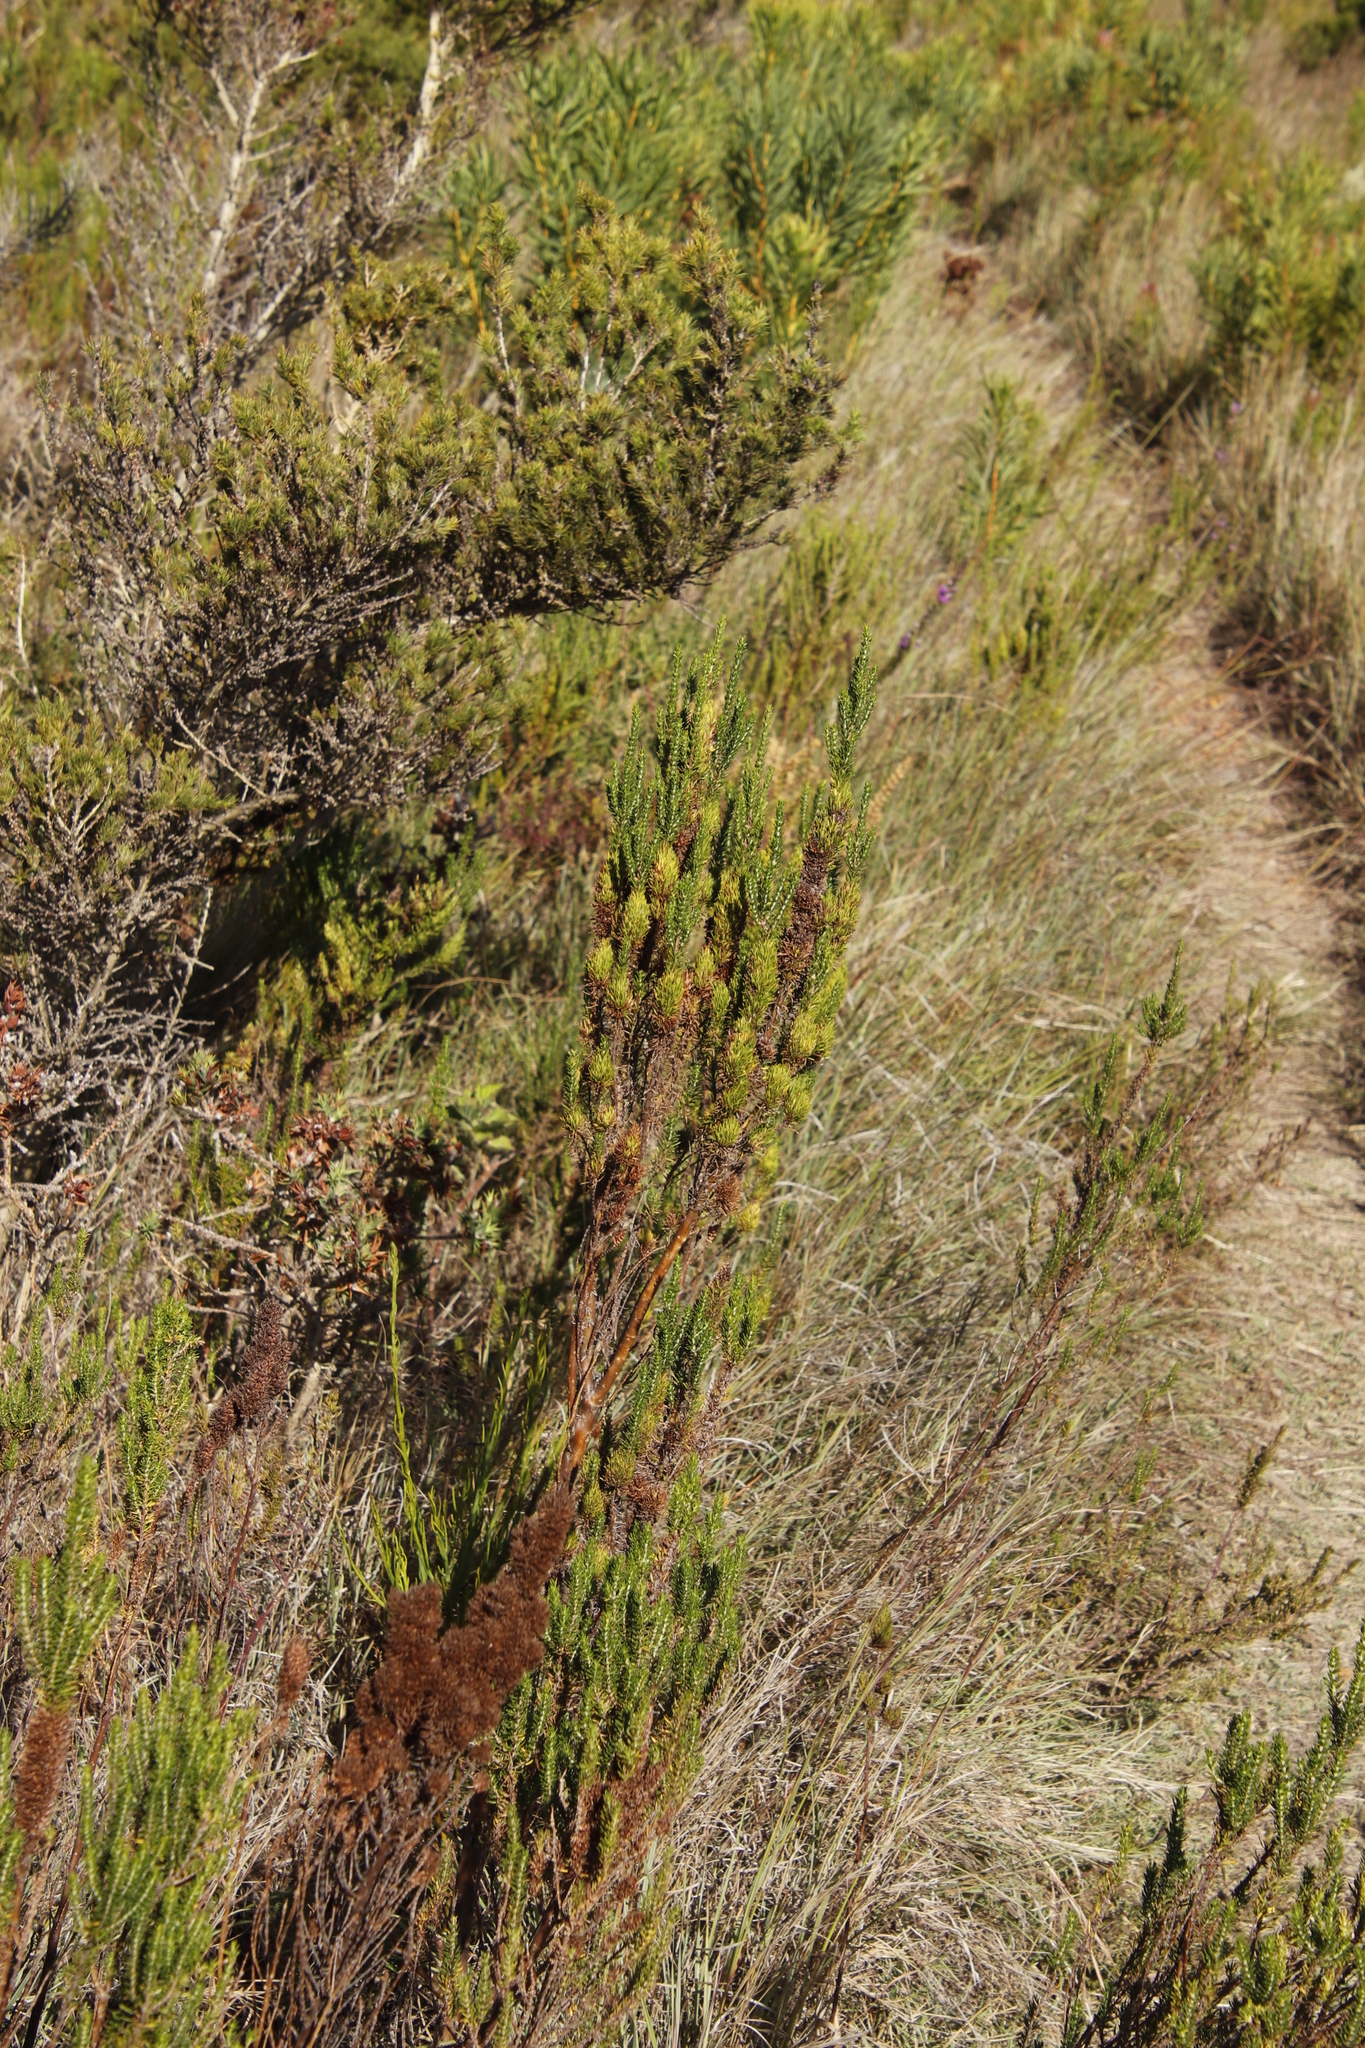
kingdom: Plantae
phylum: Tracheophyta
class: Magnoliopsida
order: Gentianales
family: Rubiaceae
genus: Anthospermum
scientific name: Anthospermum aethiopicum
